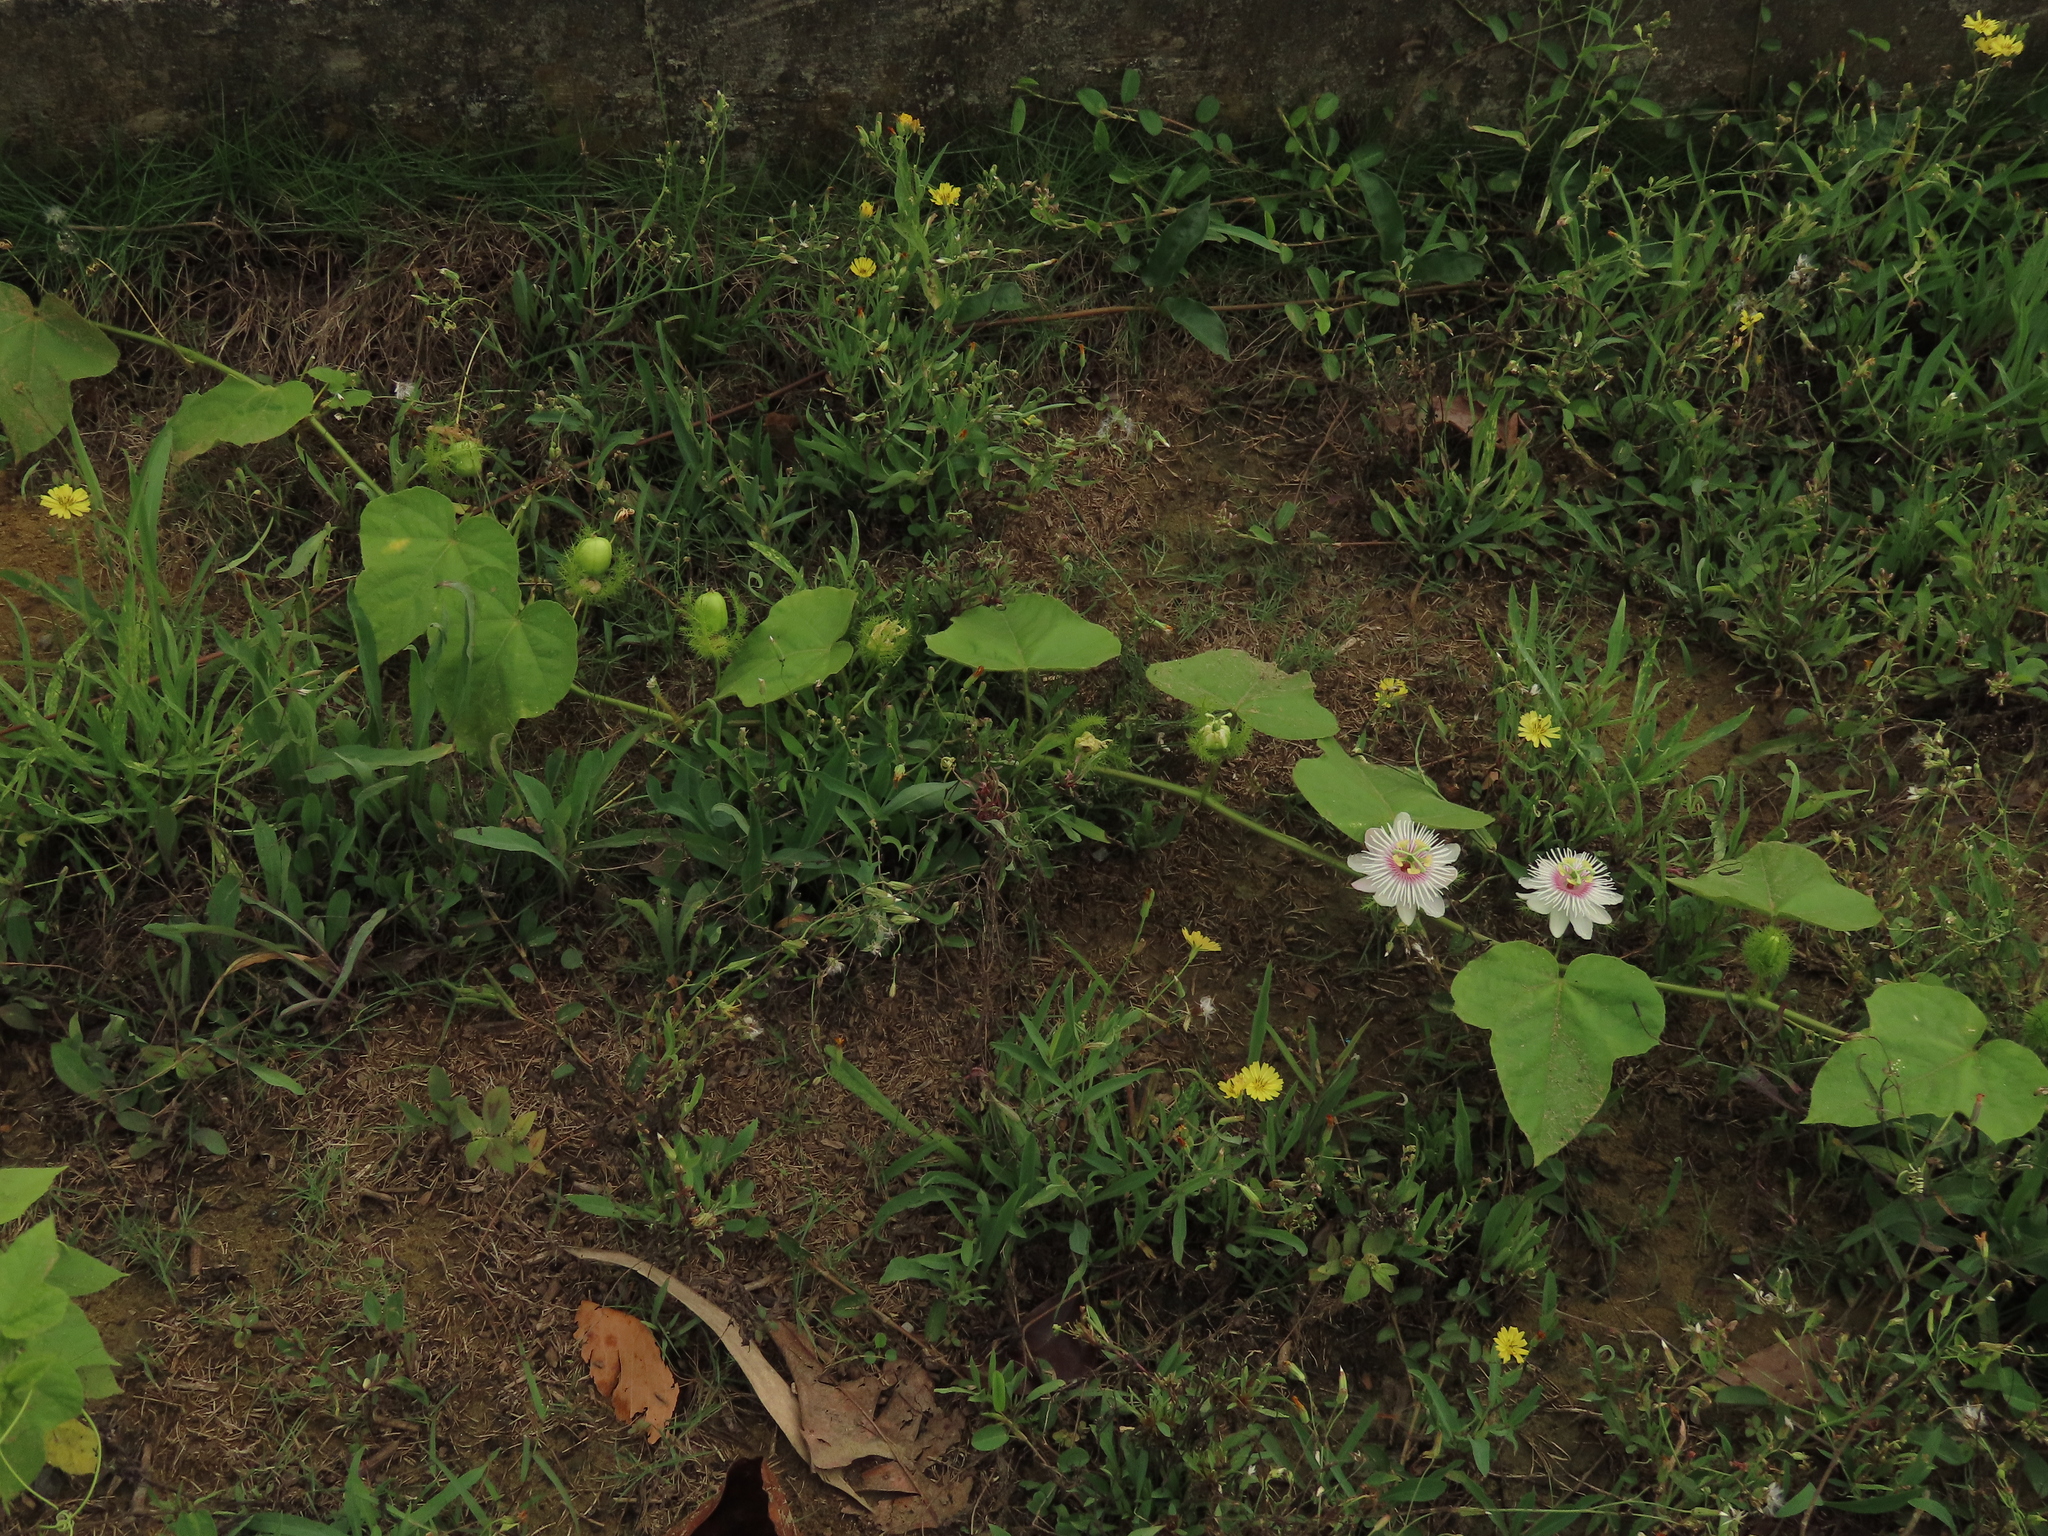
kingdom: Plantae
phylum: Tracheophyta
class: Magnoliopsida
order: Malpighiales
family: Passifloraceae
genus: Passiflora
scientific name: Passiflora vesicaria
